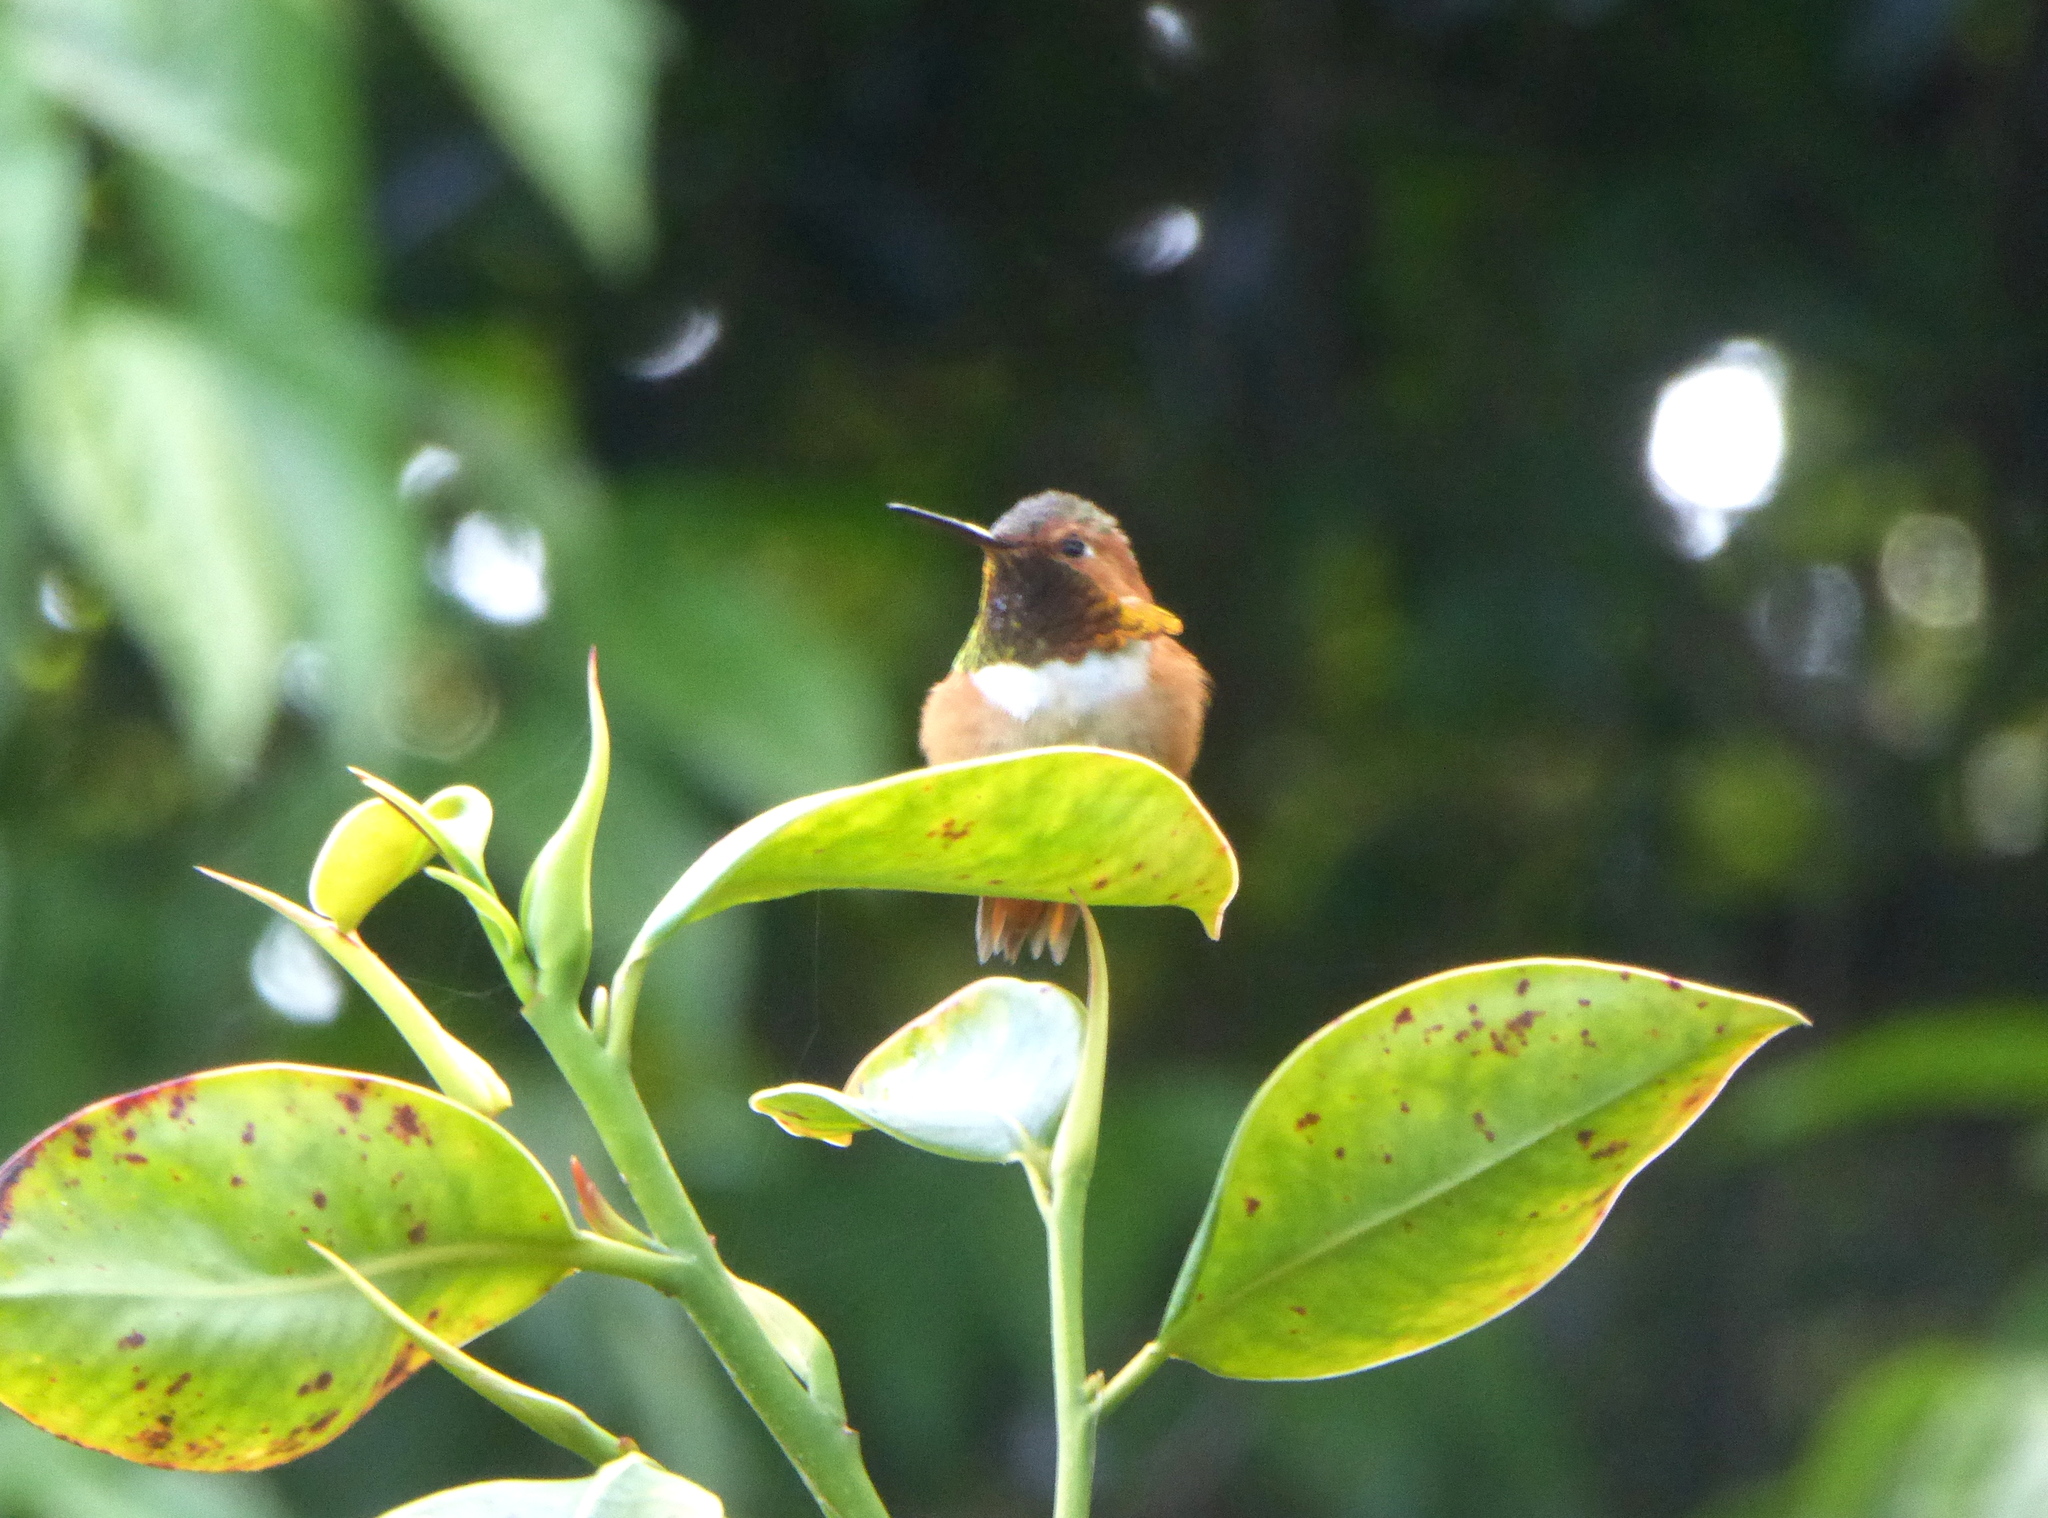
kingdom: Animalia
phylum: Chordata
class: Aves
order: Apodiformes
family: Trochilidae
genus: Selasphorus
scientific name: Selasphorus sasin
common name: Allen's hummingbird
